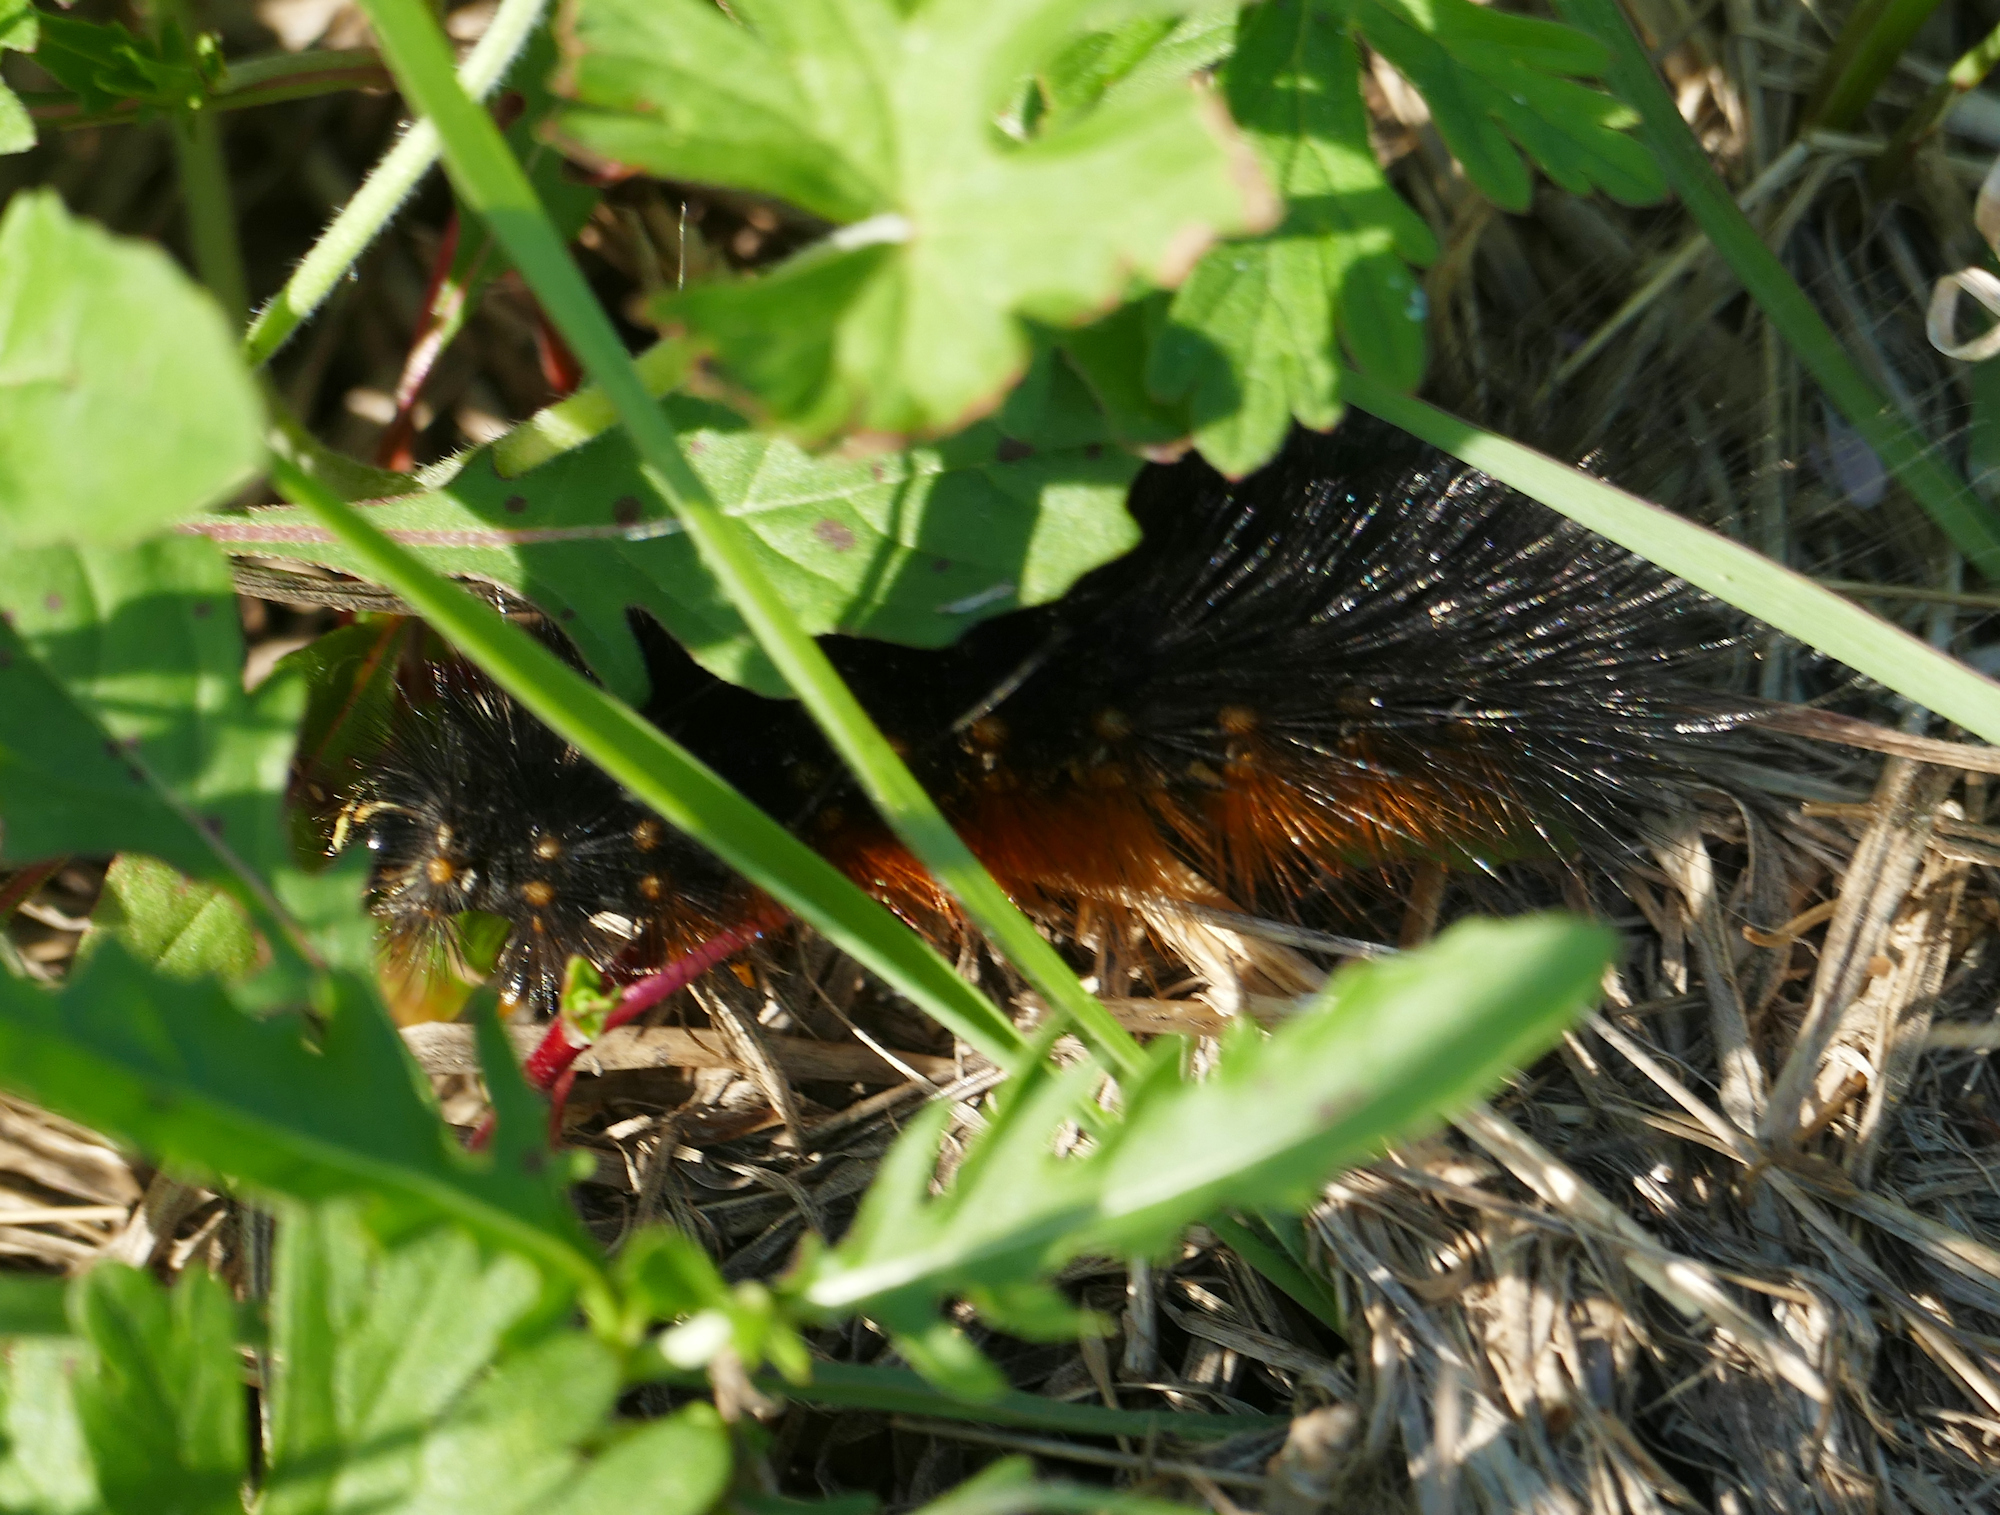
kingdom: Animalia
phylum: Arthropoda
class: Insecta
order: Lepidoptera
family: Erebidae
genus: Estigmene
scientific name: Estigmene acrea
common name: Salt marsh moth
